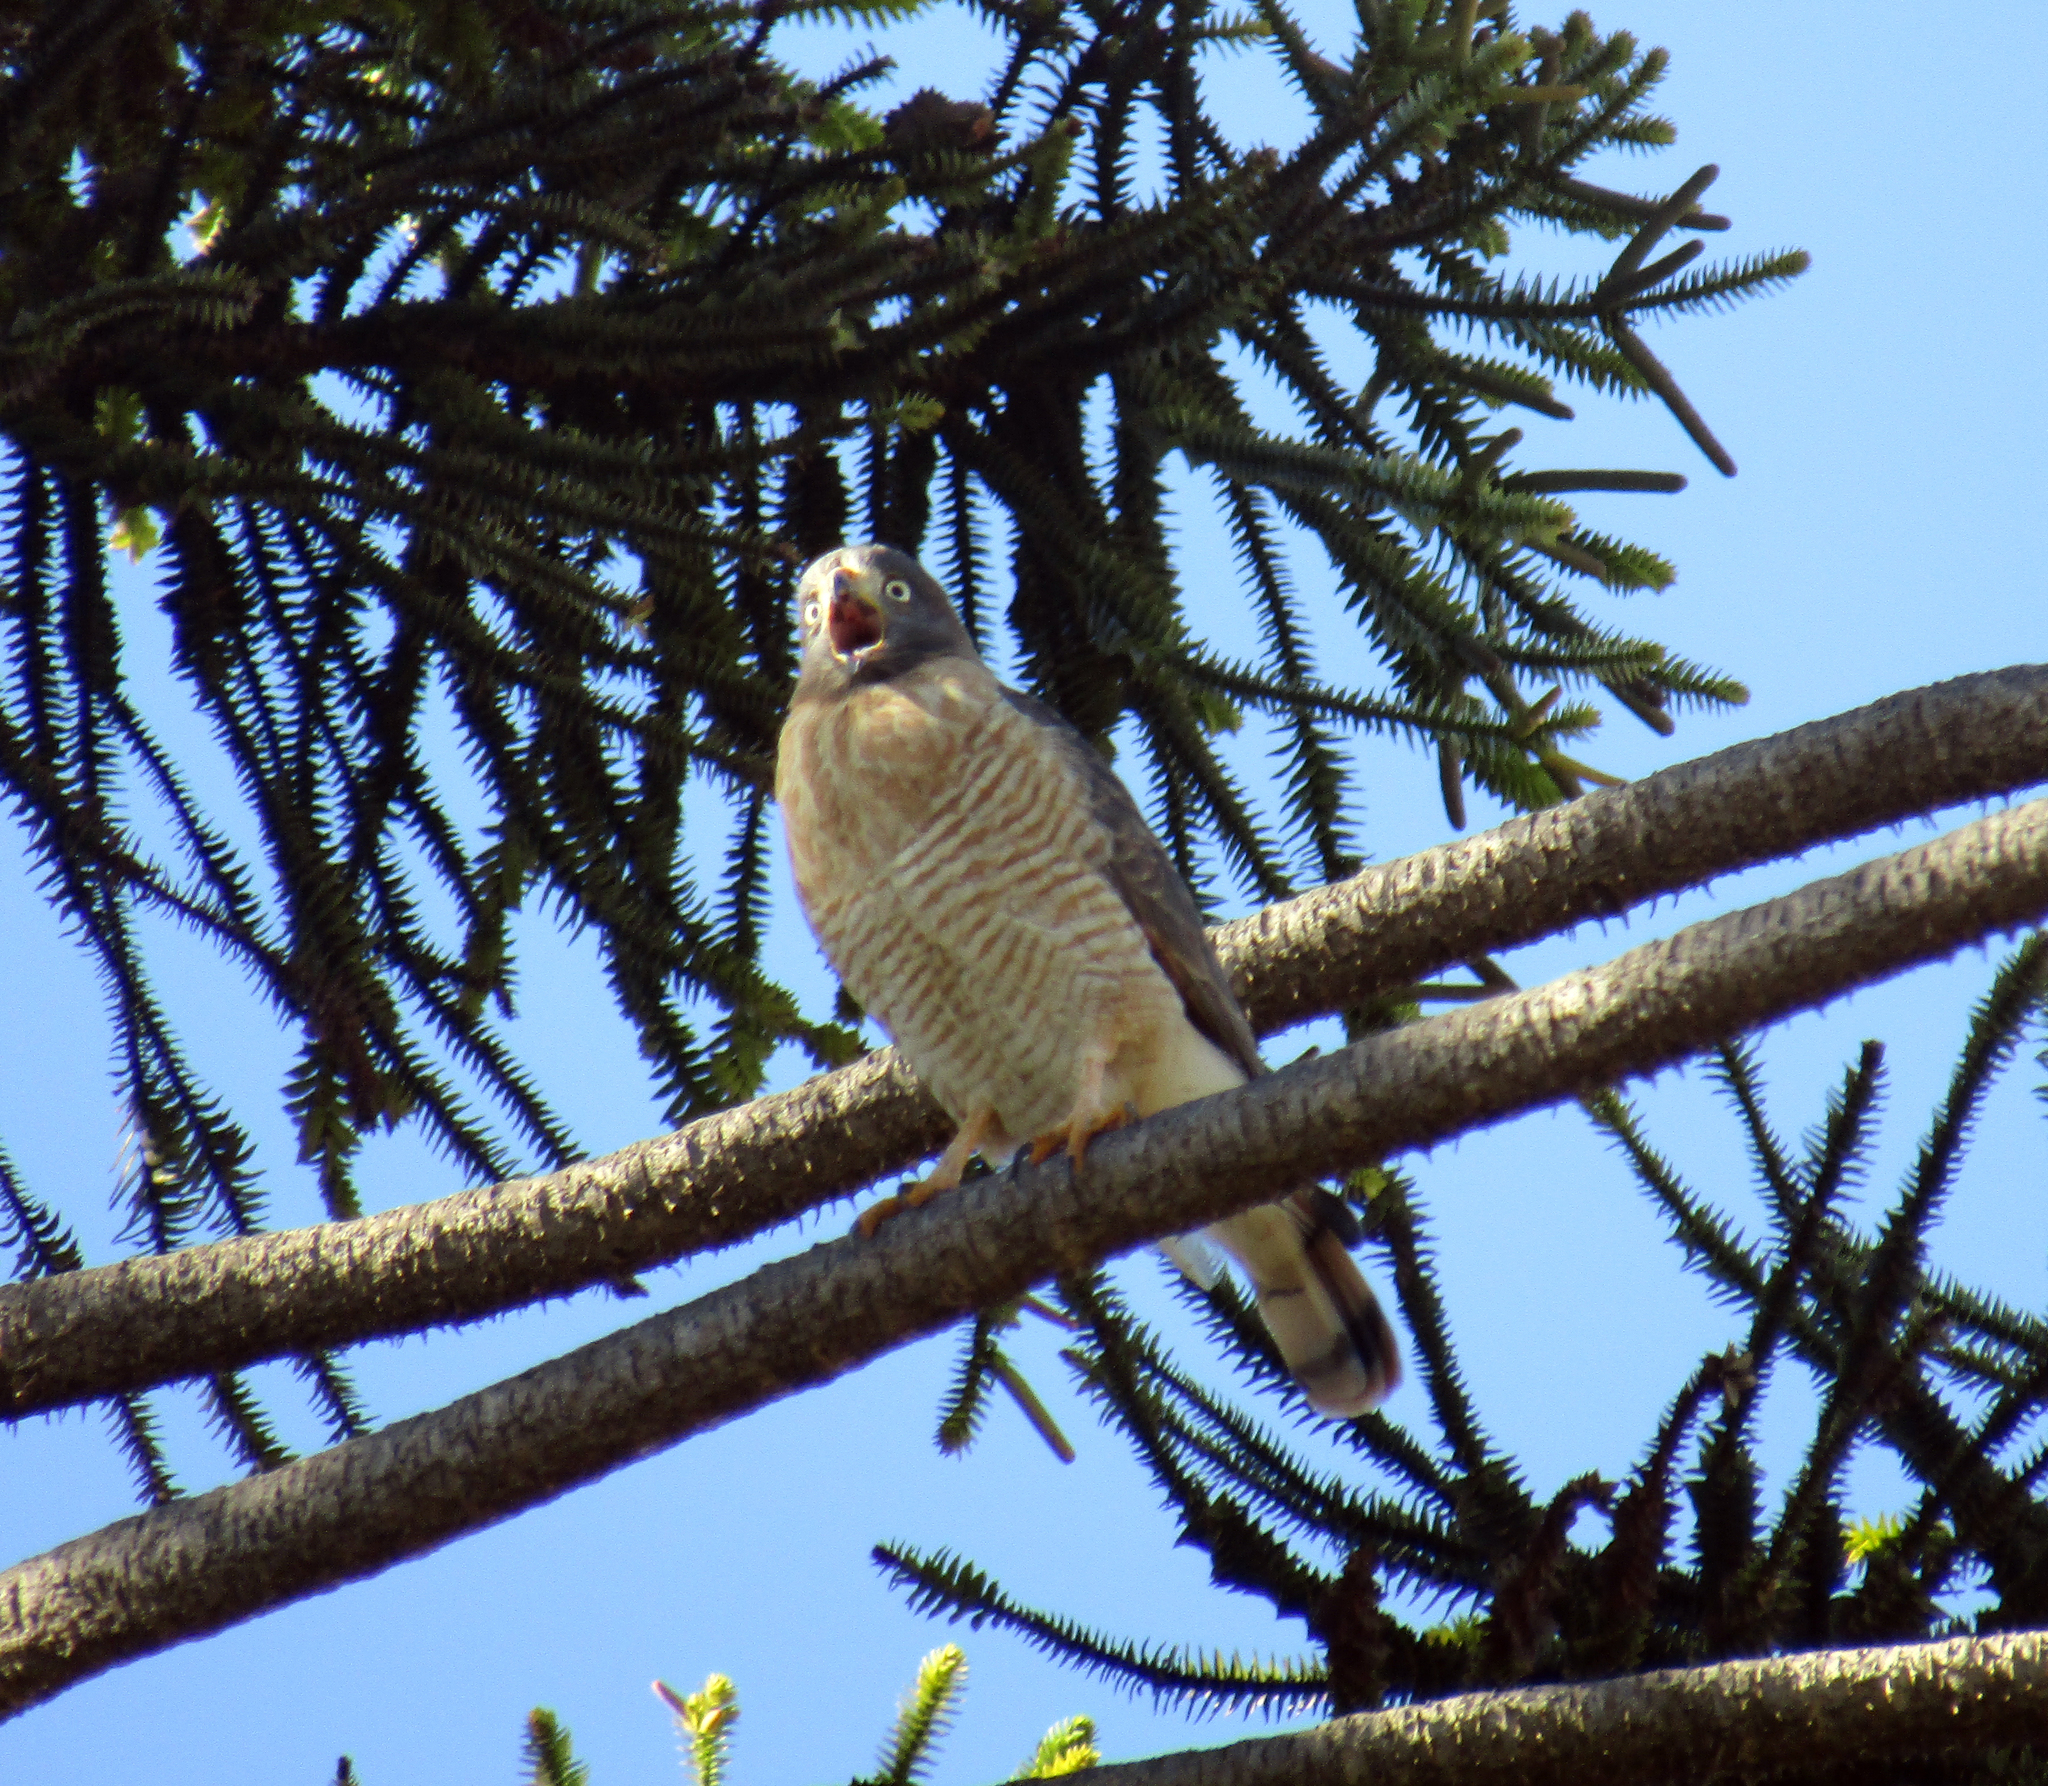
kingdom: Animalia
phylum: Chordata
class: Aves
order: Accipitriformes
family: Accipitridae
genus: Rupornis
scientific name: Rupornis magnirostris
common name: Roadside hawk
